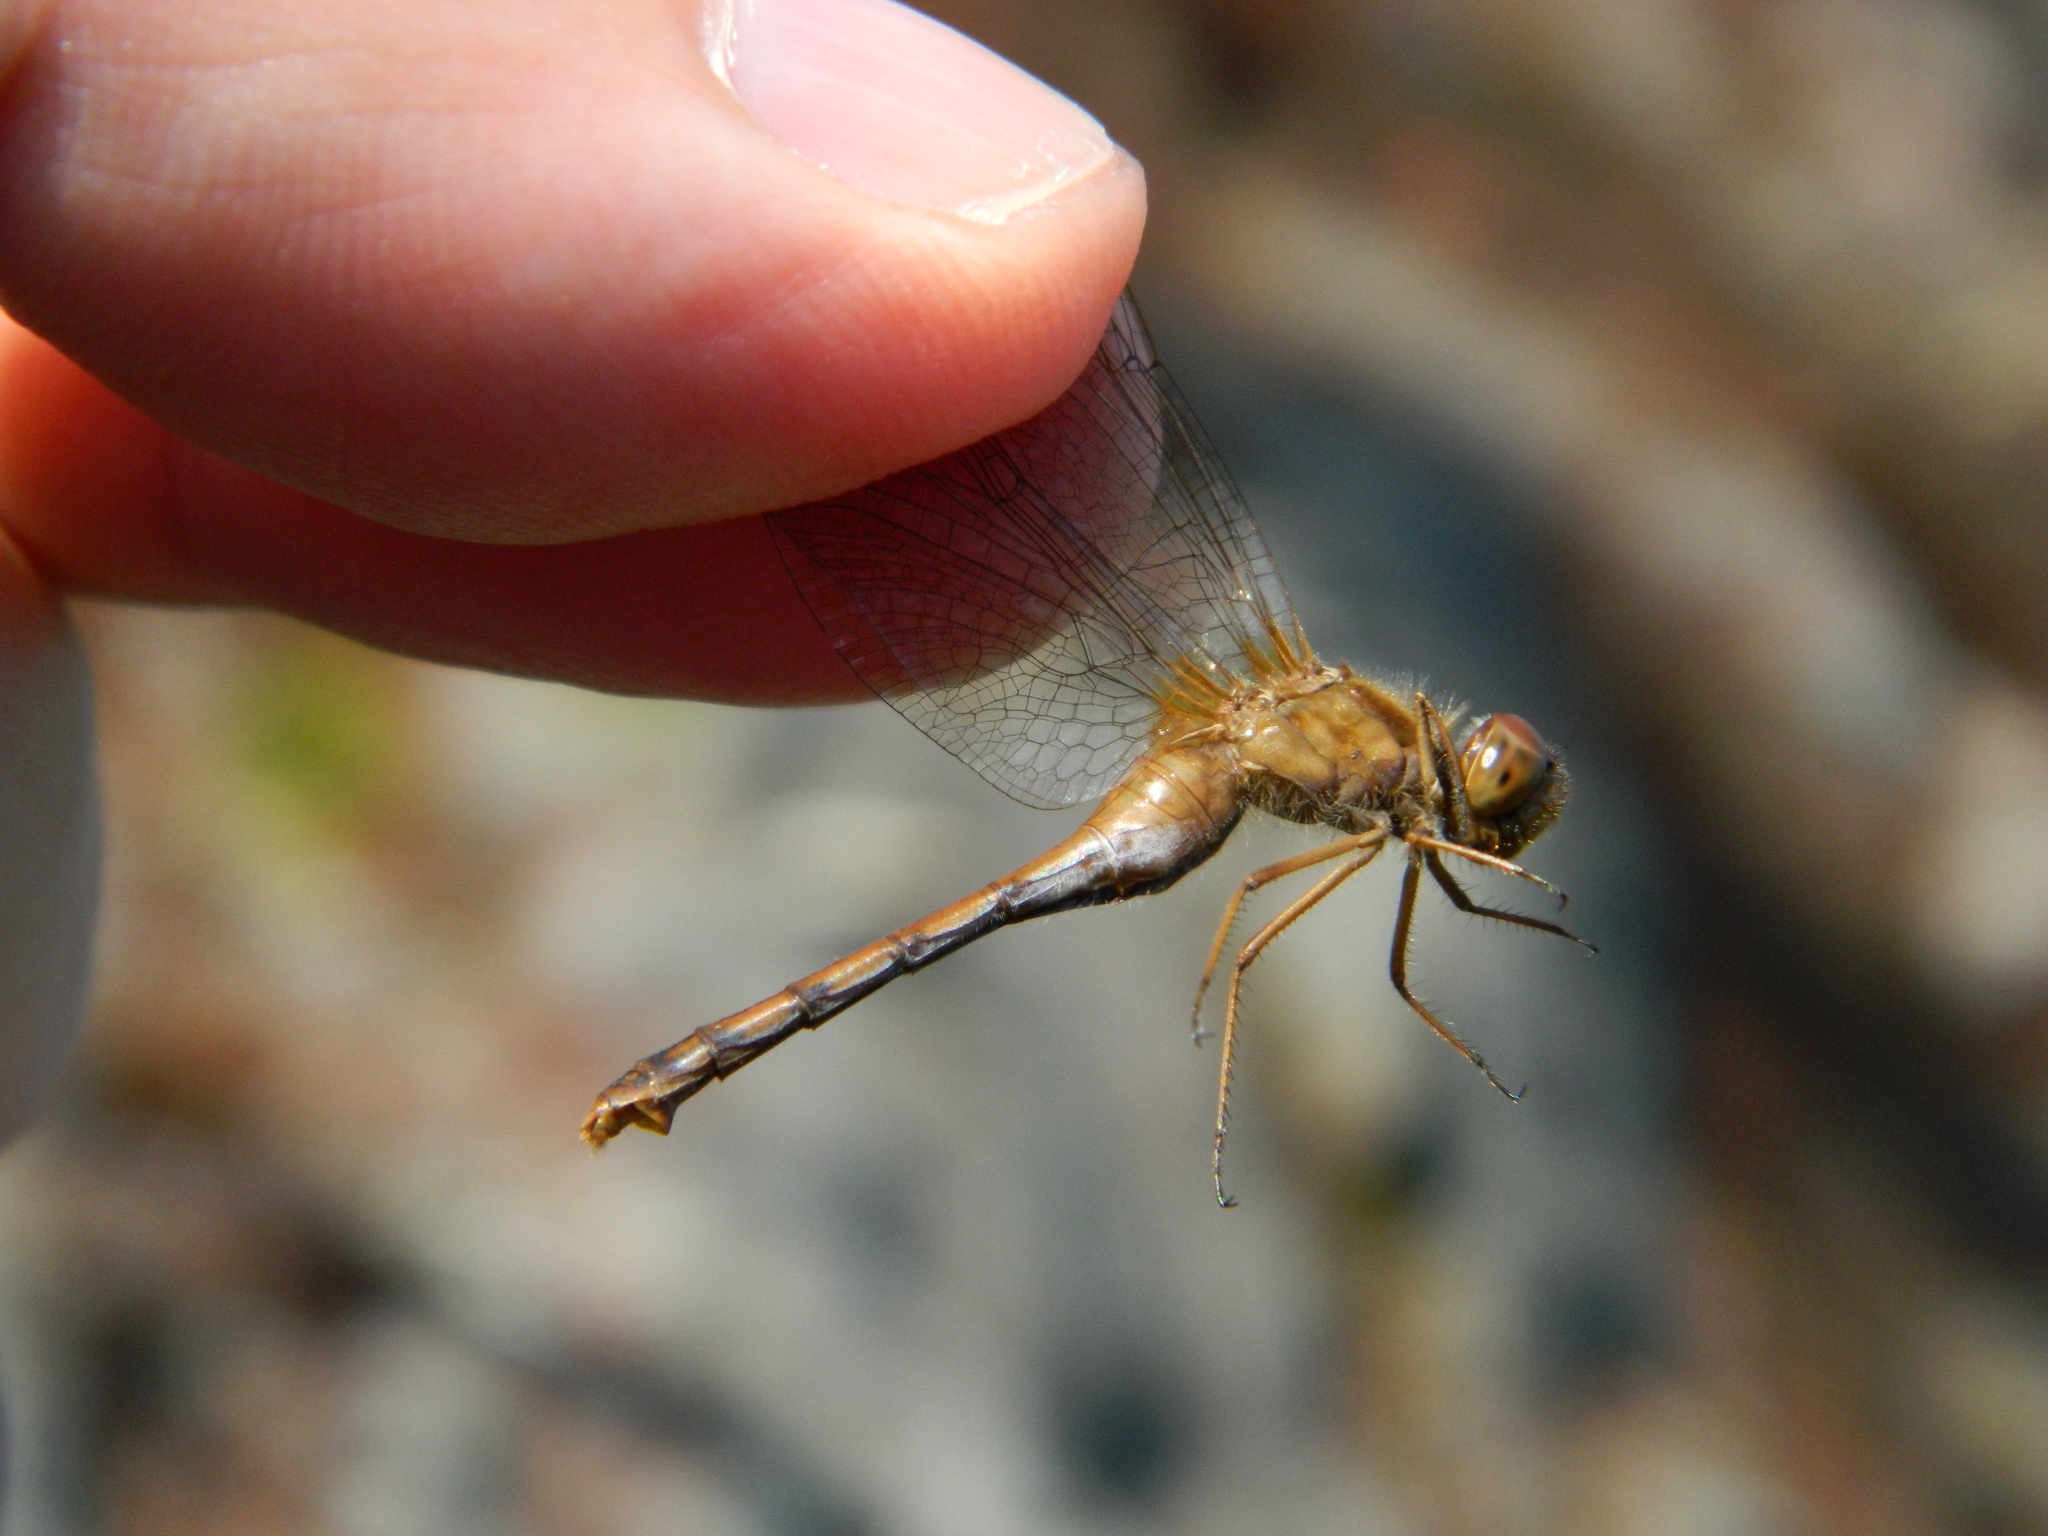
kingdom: Animalia
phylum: Arthropoda
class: Insecta
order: Odonata
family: Libellulidae
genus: Sympetrum
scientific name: Sympetrum vicinum
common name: Autumn meadowhawk
